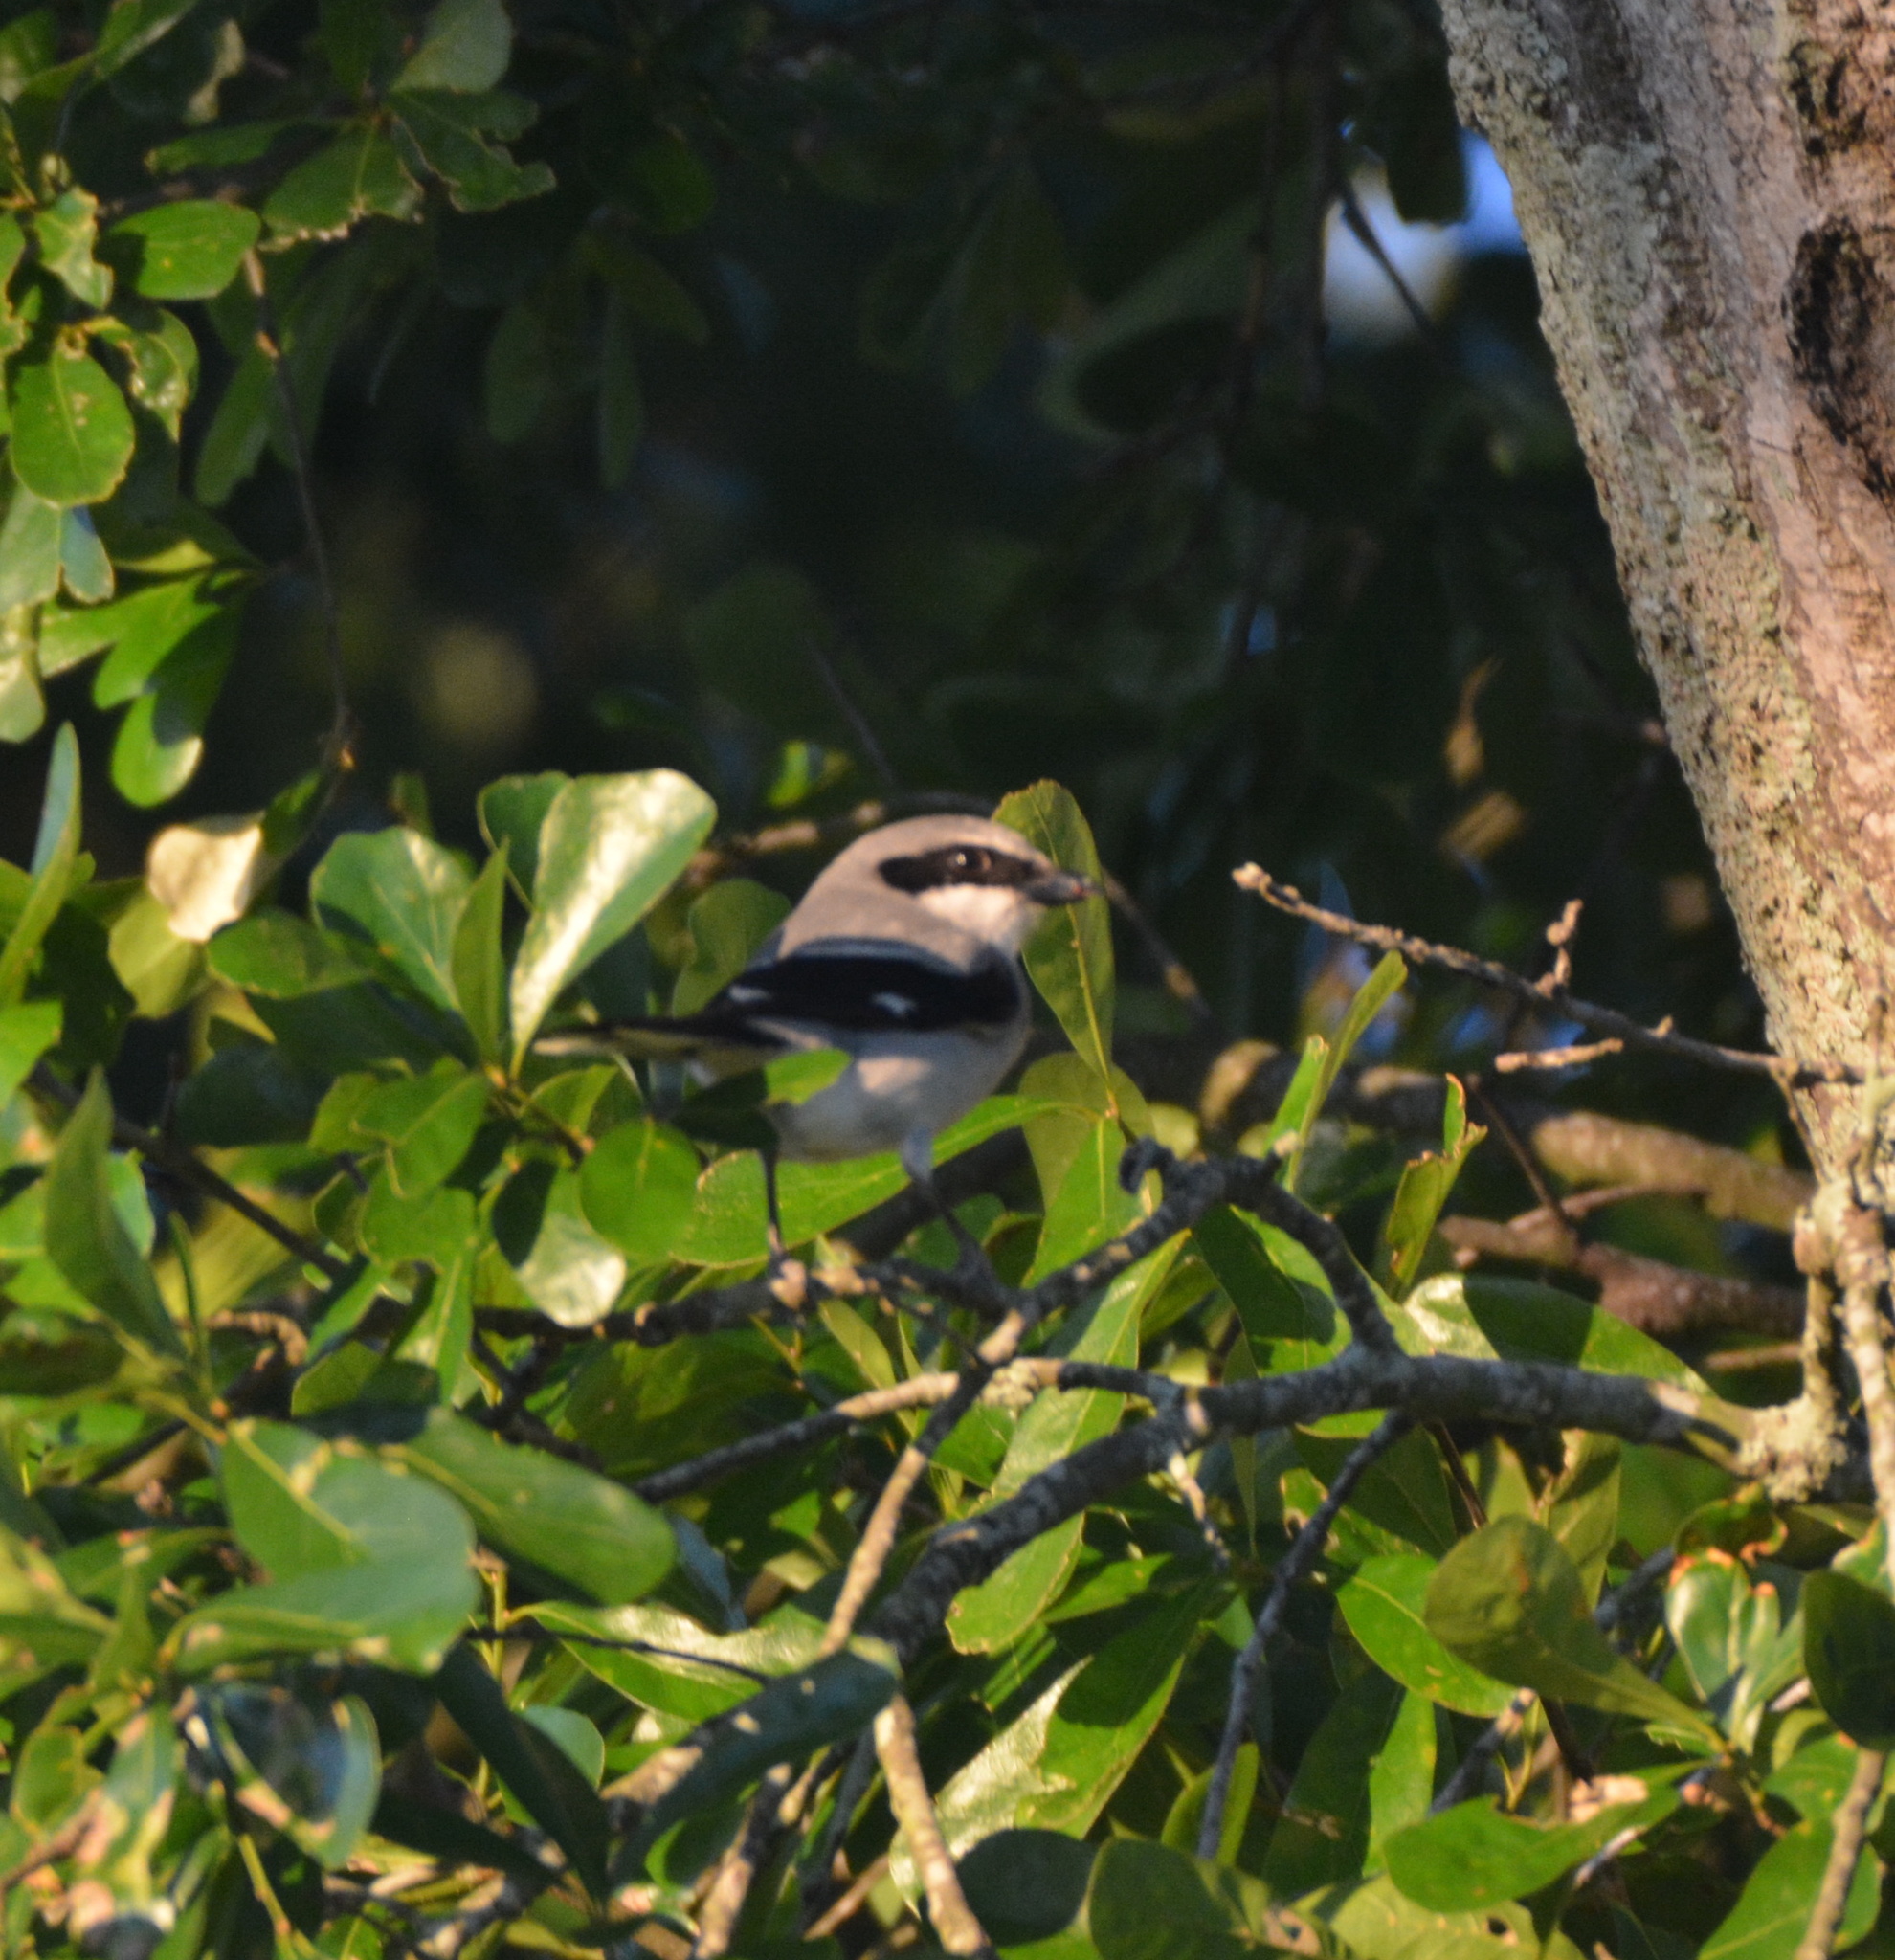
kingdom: Animalia
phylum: Chordata
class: Aves
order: Passeriformes
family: Laniidae
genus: Lanius
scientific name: Lanius ludovicianus
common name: Loggerhead shrike
